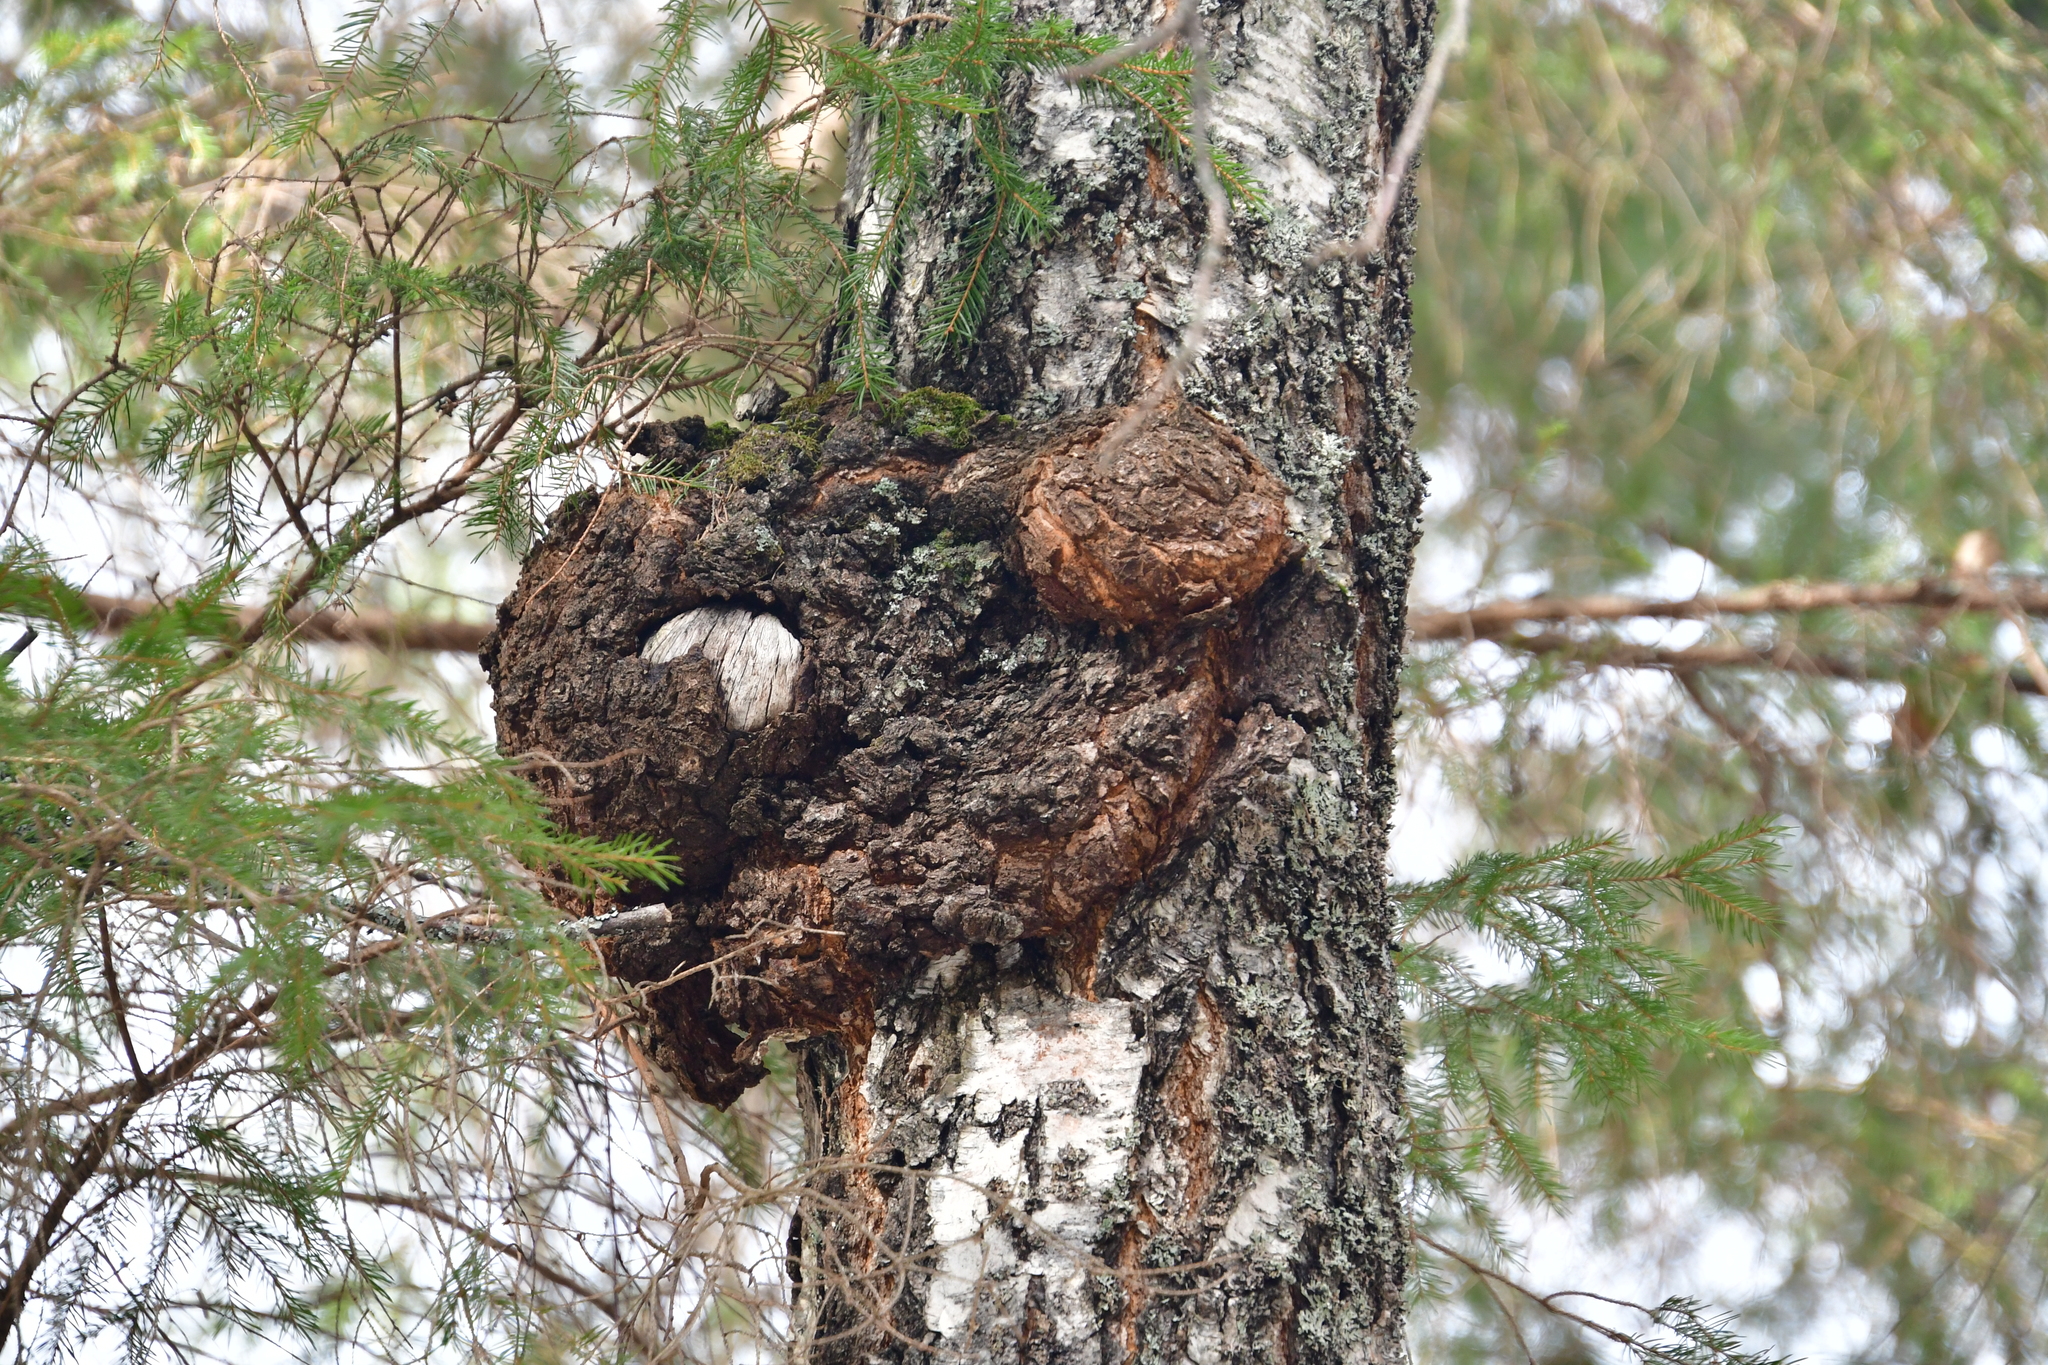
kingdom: Bacteria
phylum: Proteobacteria
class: Alphaproteobacteria
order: Rhizobiales
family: Rhizobiaceae
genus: Rhizobium
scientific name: Rhizobium Agrobacterium radiobacter
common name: Bacterial crown gall
